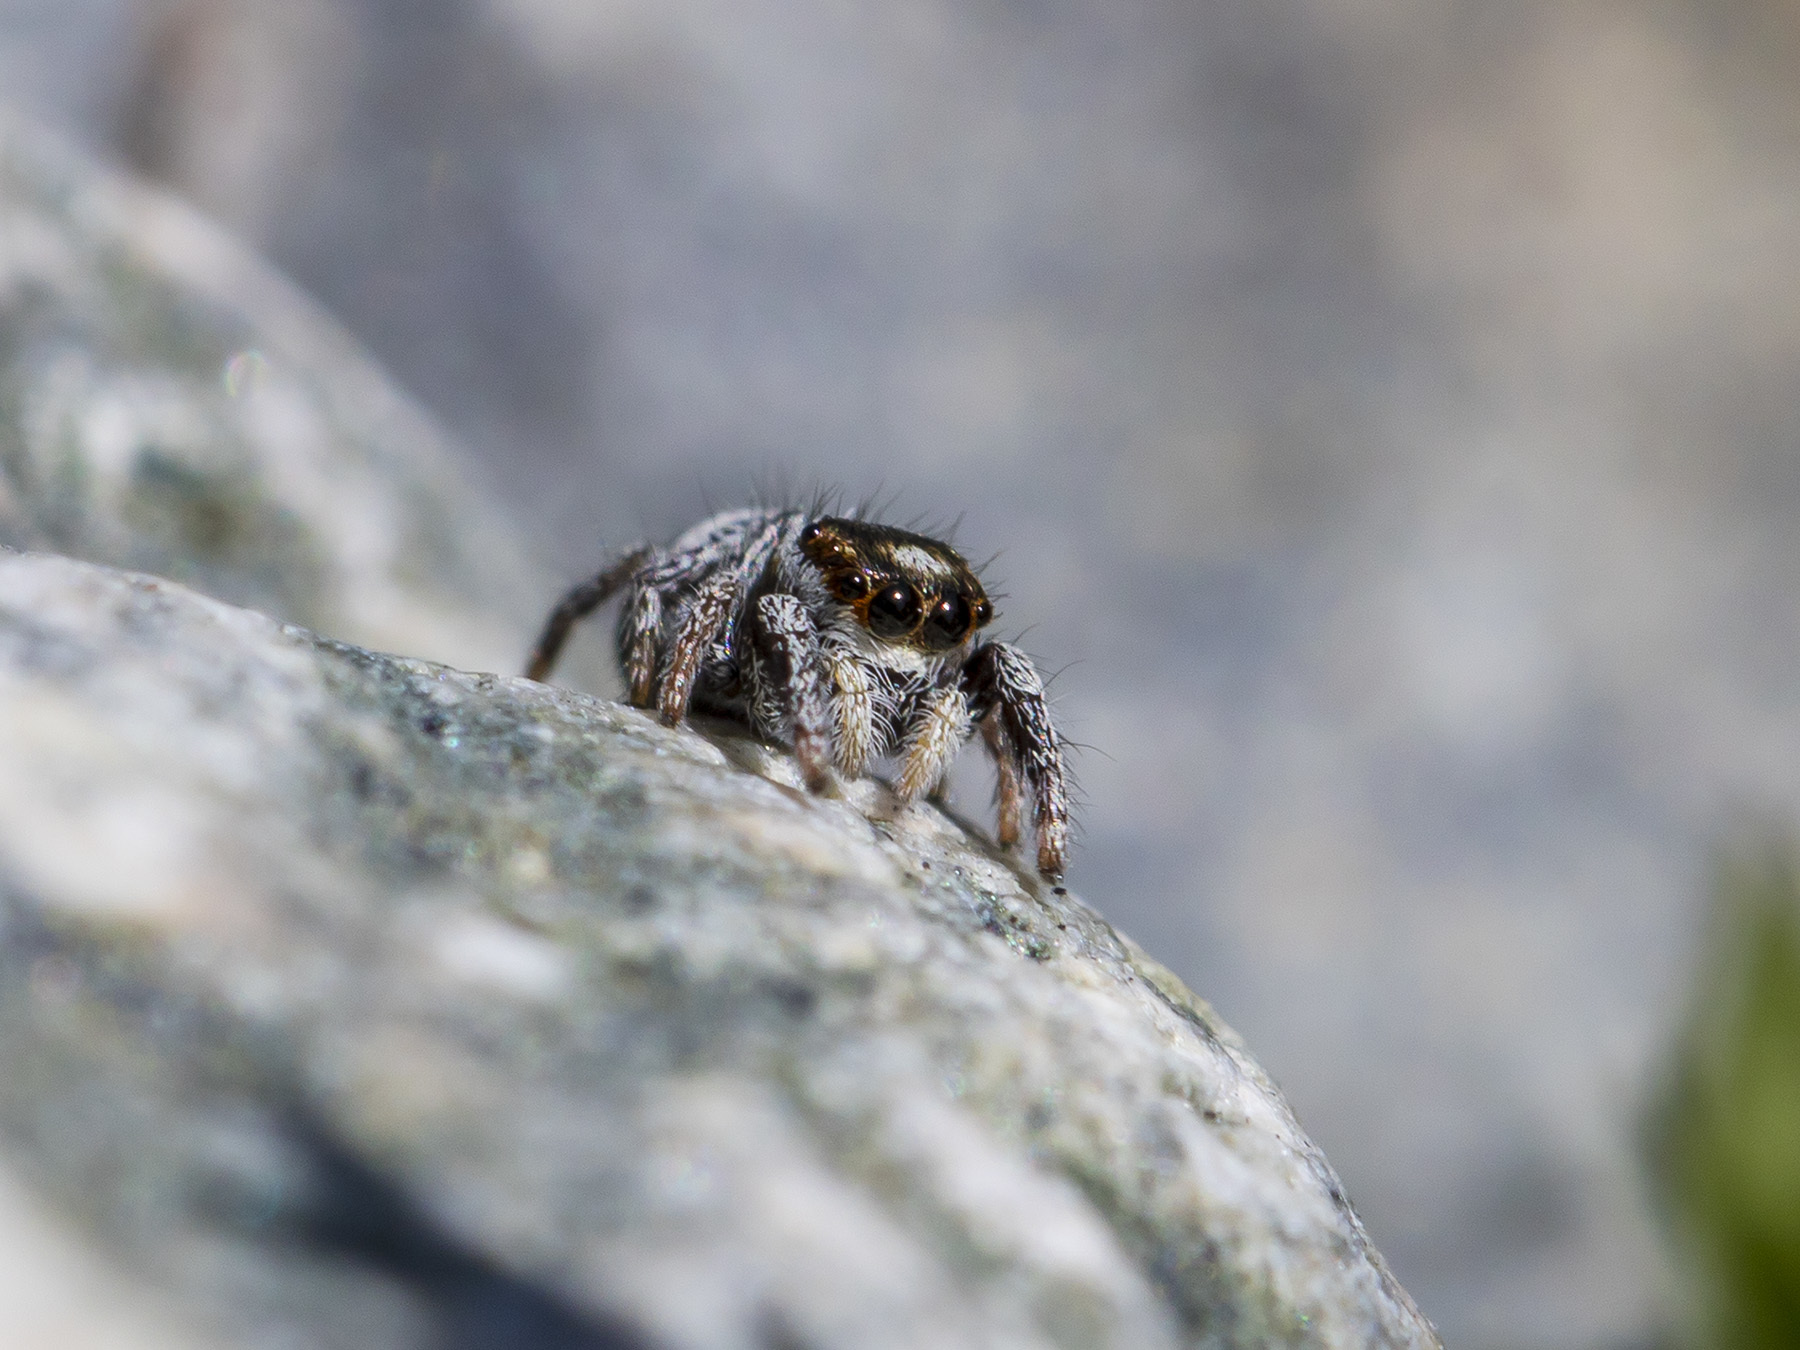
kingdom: Animalia
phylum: Arthropoda
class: Arachnida
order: Araneae
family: Salticidae
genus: Pellenes
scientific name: Pellenes geniculatus
